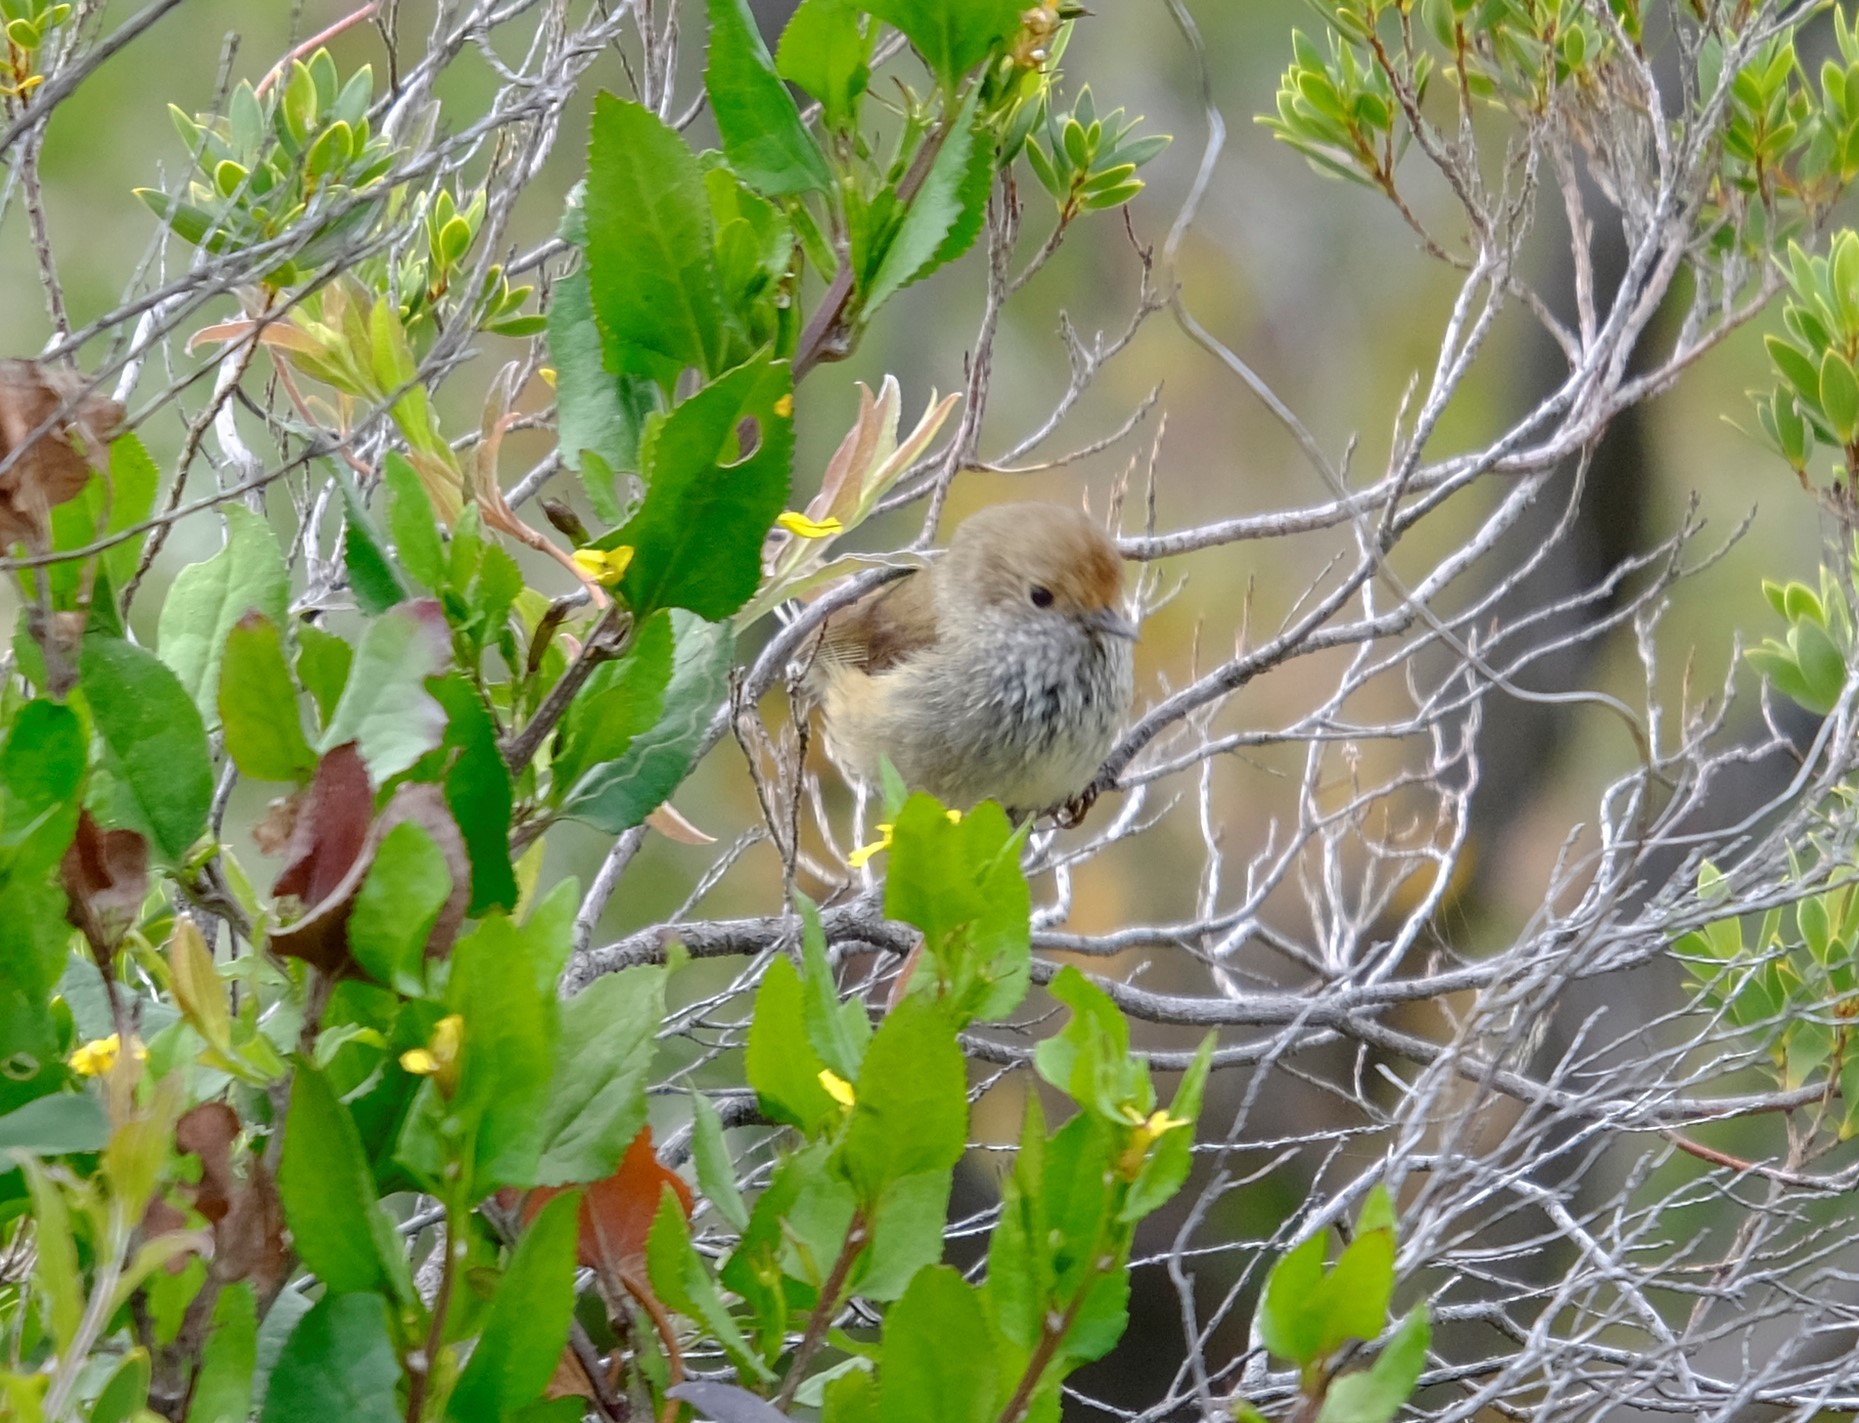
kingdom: Animalia
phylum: Chordata
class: Aves
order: Passeriformes
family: Acanthizidae
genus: Acanthiza
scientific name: Acanthiza pusilla
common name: Brown thornbill
